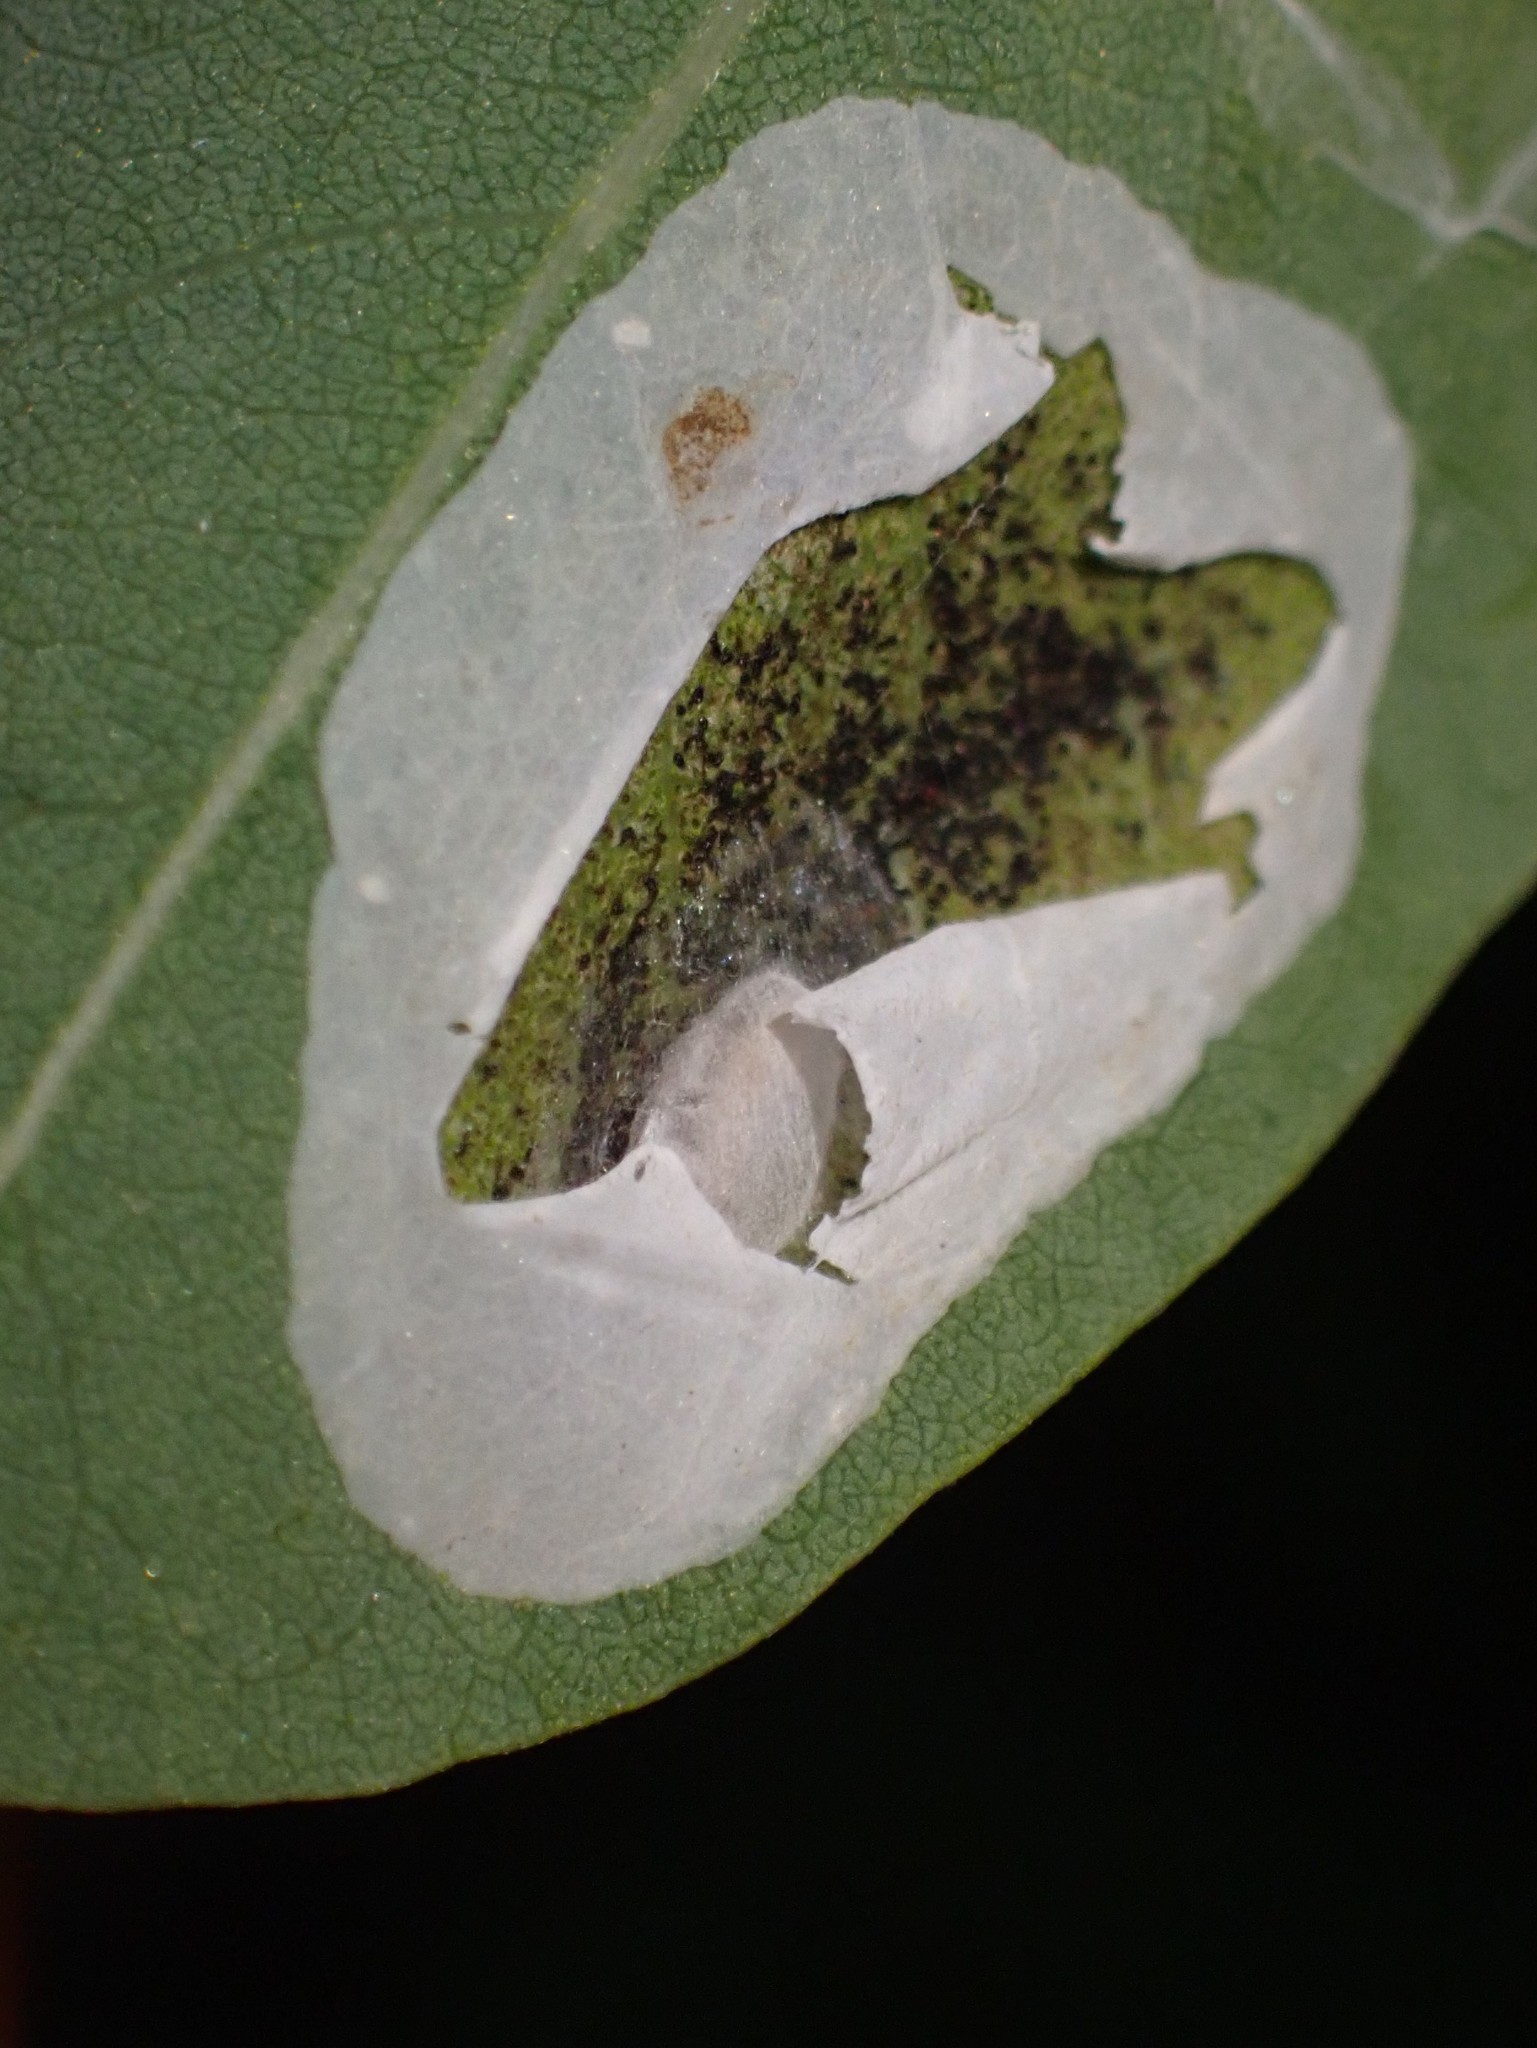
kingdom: Animalia
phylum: Arthropoda
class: Insecta
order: Lepidoptera
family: Gracillariidae
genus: Macrosaccus
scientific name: Macrosaccus robiniella
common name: Leaf blotch miner moth
